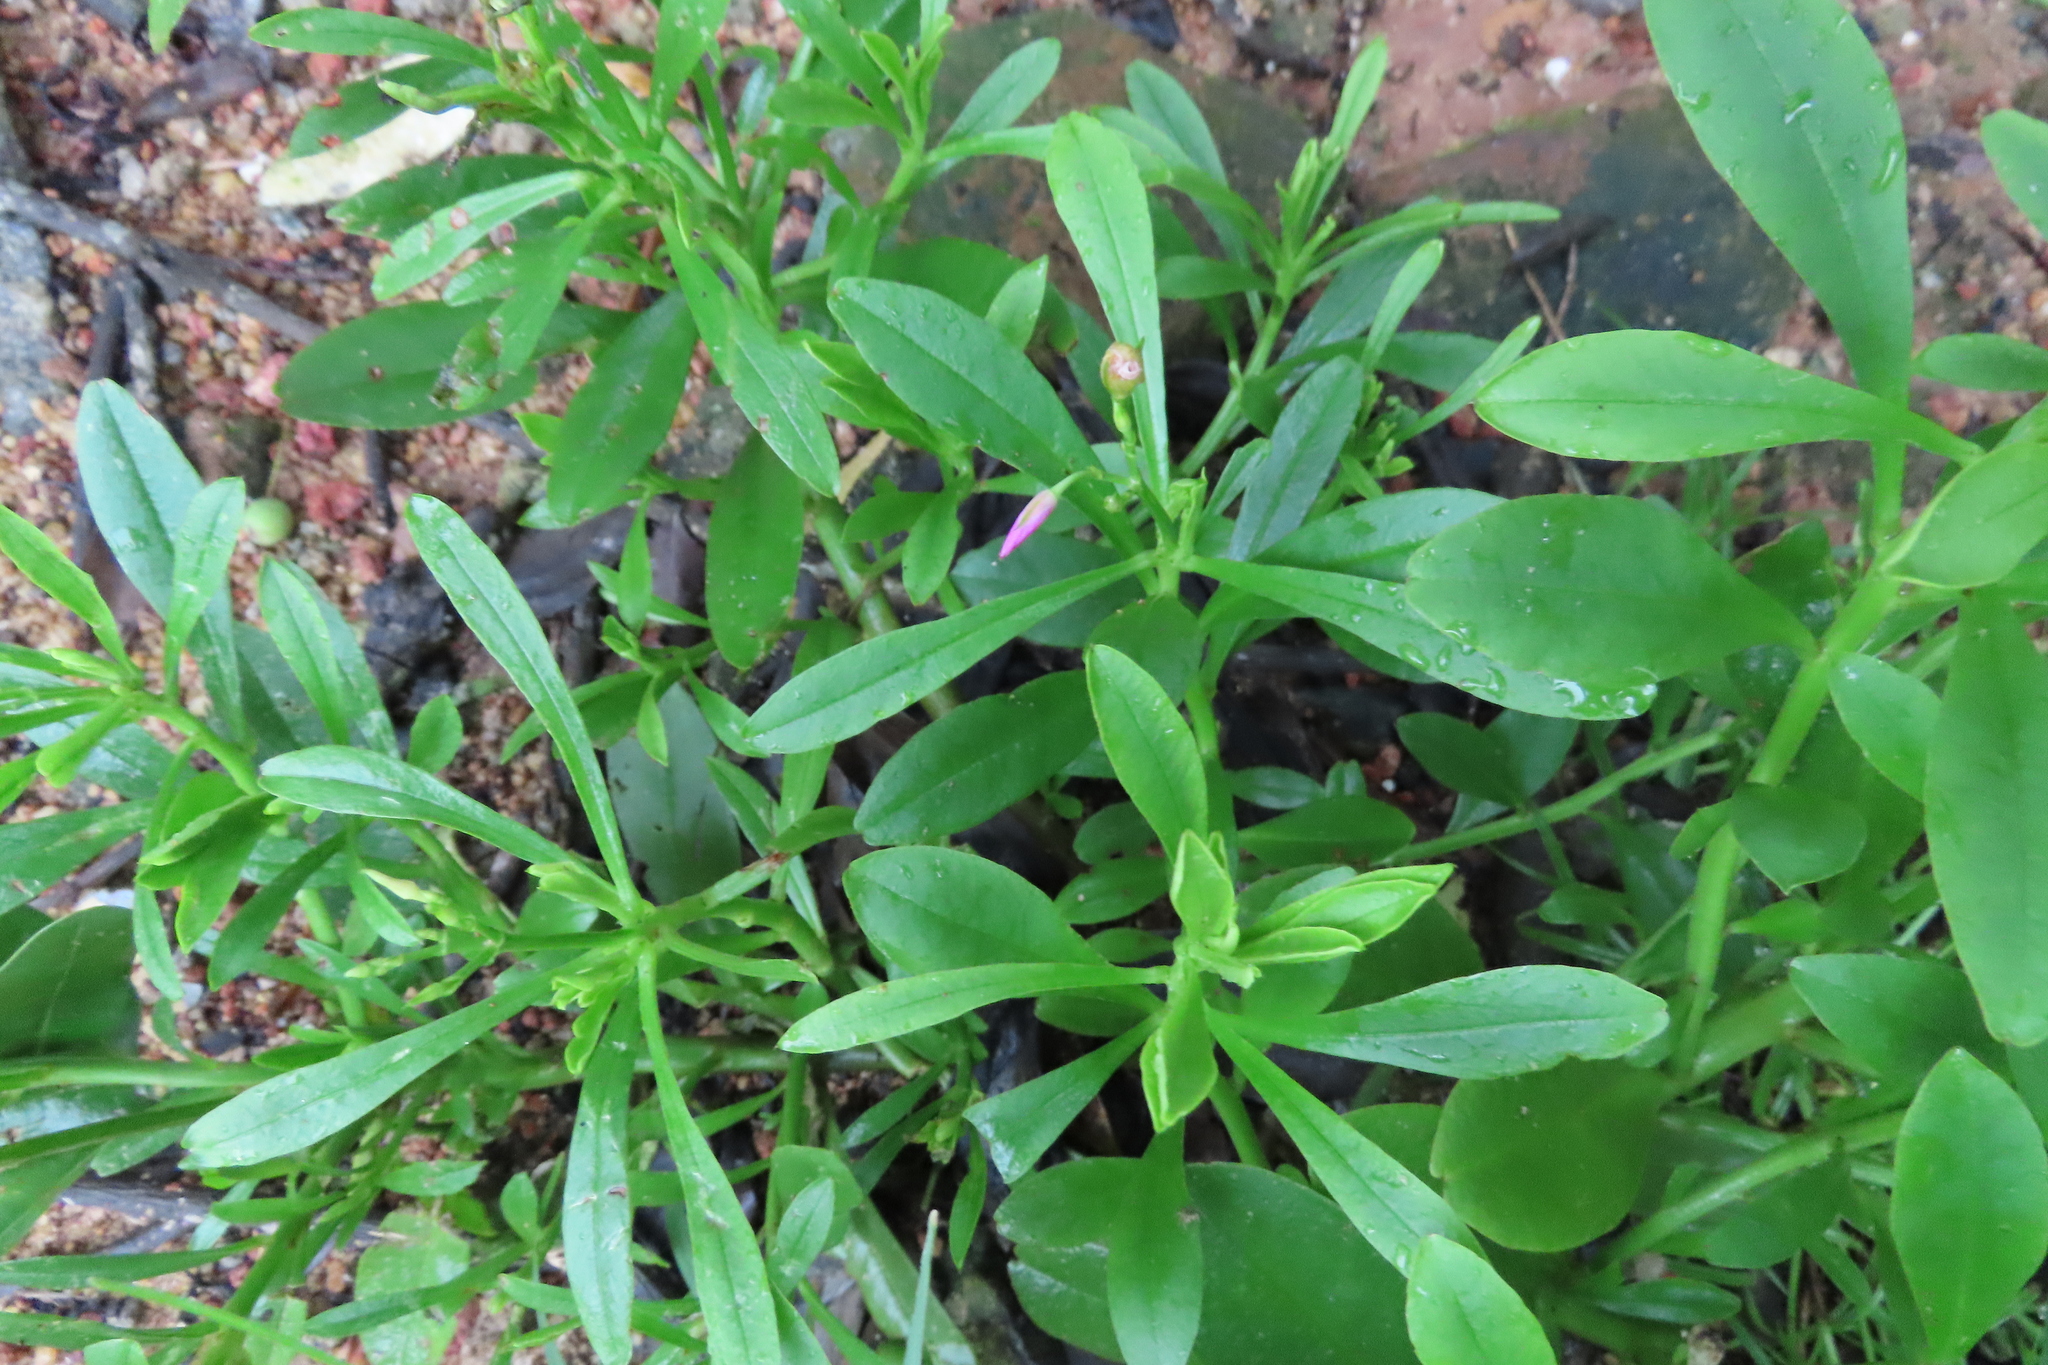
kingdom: Plantae
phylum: Tracheophyta
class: Magnoliopsida
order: Caryophyllales
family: Talinaceae
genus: Talinum
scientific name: Talinum fruticosum
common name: Verdolaga-francesa
